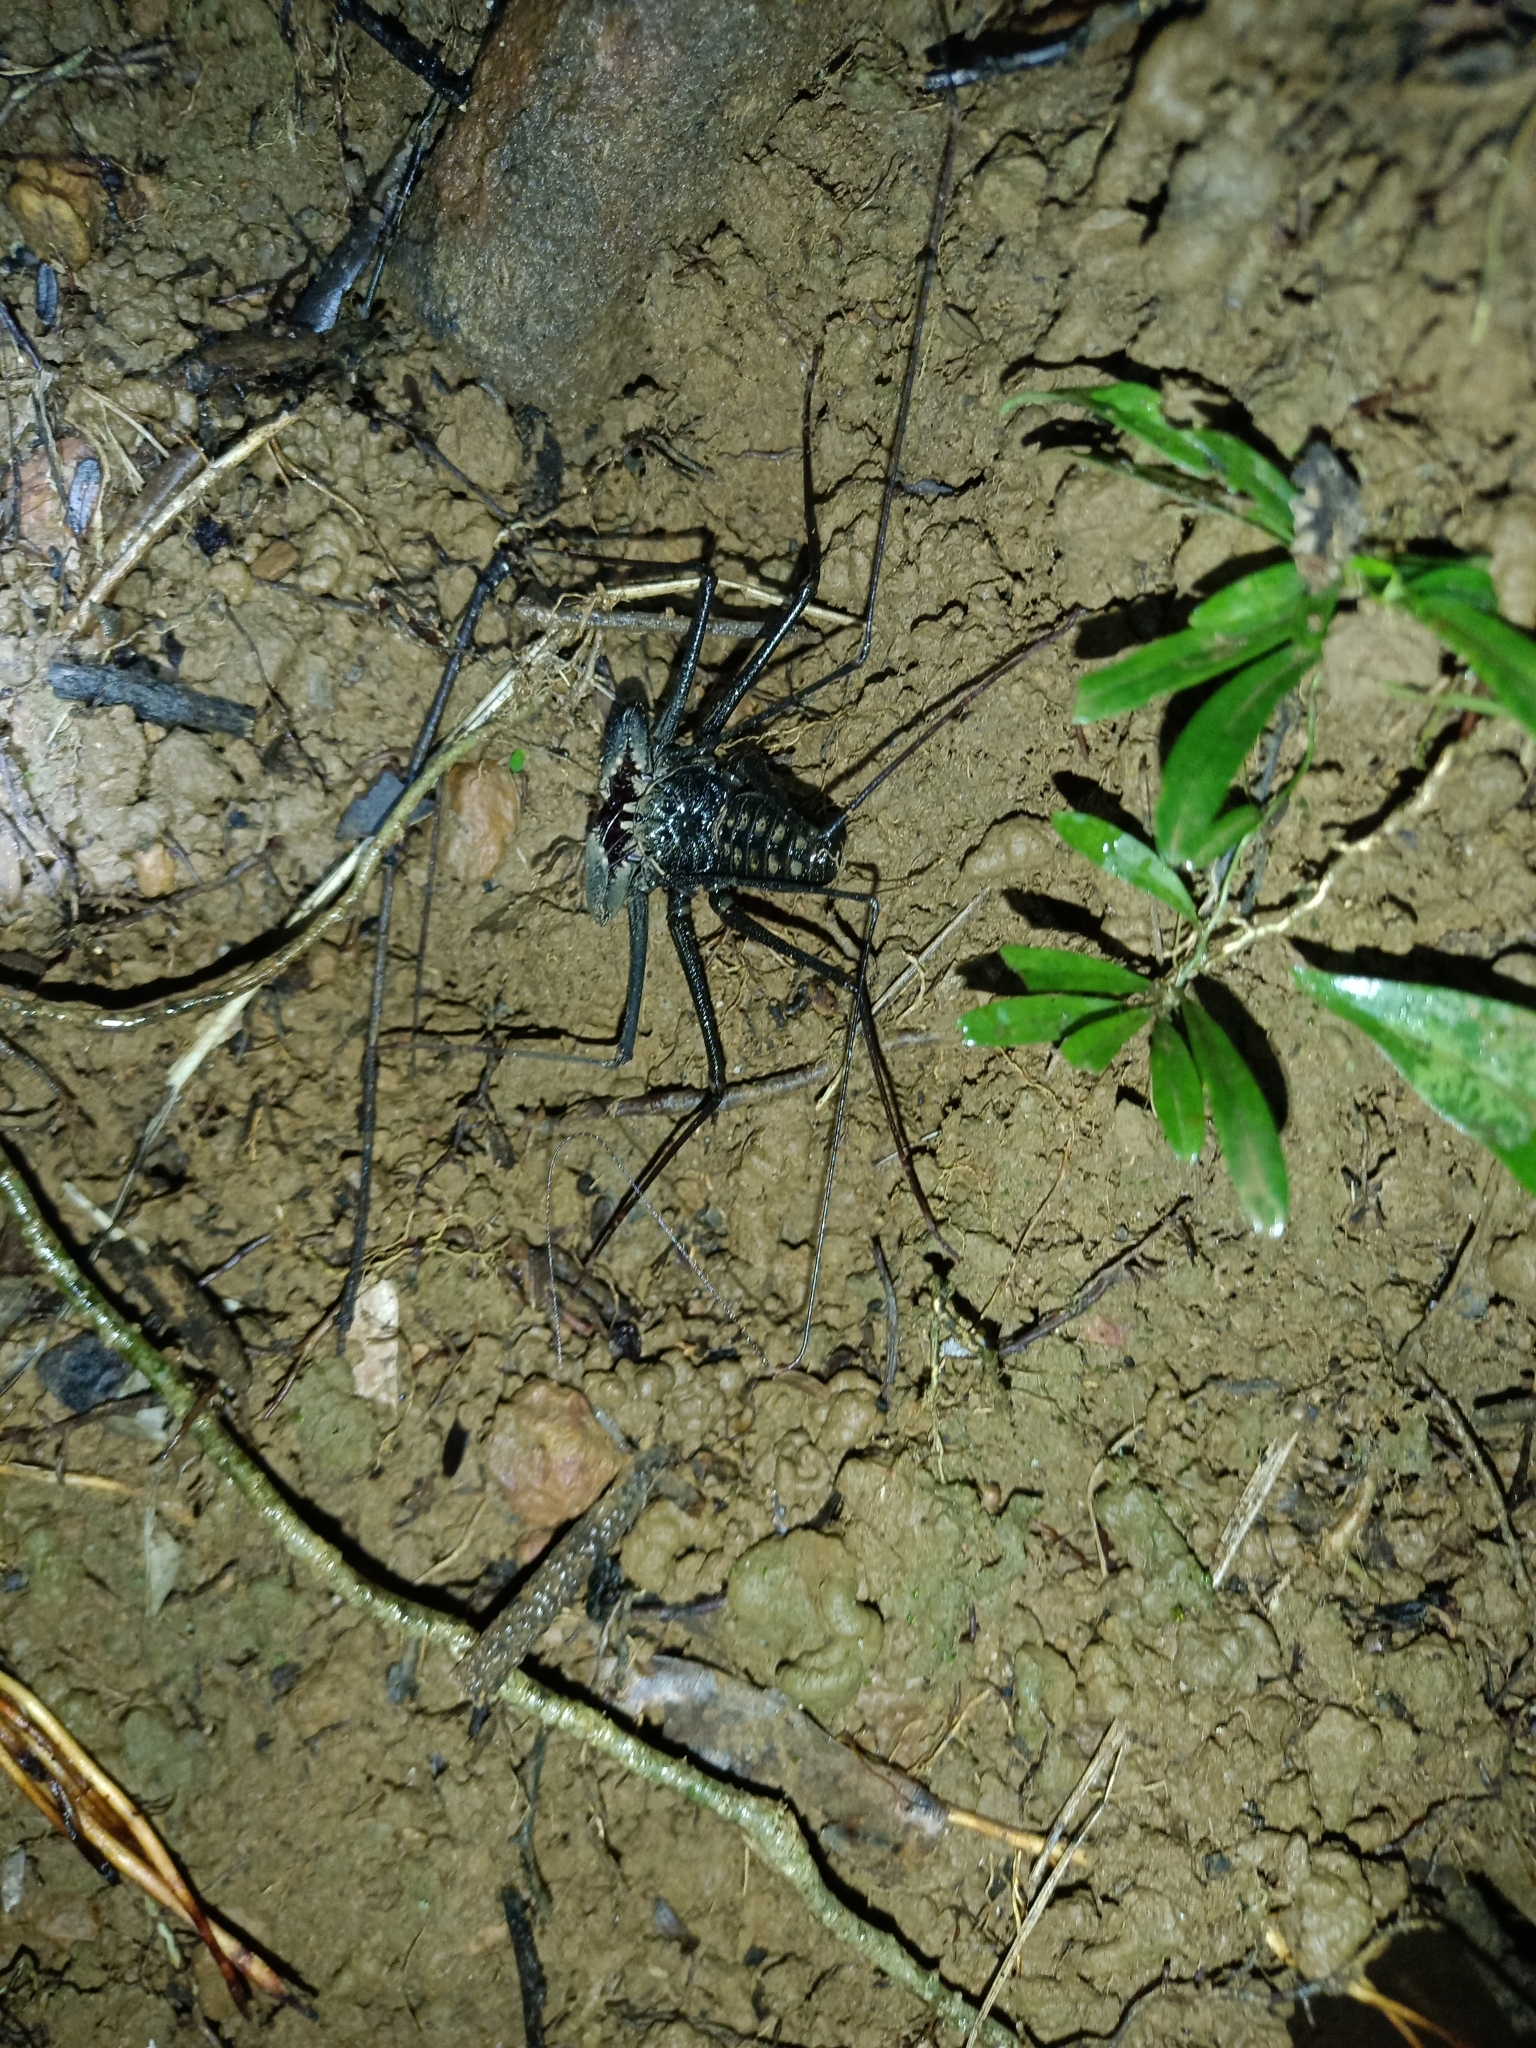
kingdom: Animalia
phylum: Arthropoda
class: Arachnida
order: Amblypygi
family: Phrynidae
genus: Heterophrynus
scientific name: Heterophrynus alces
